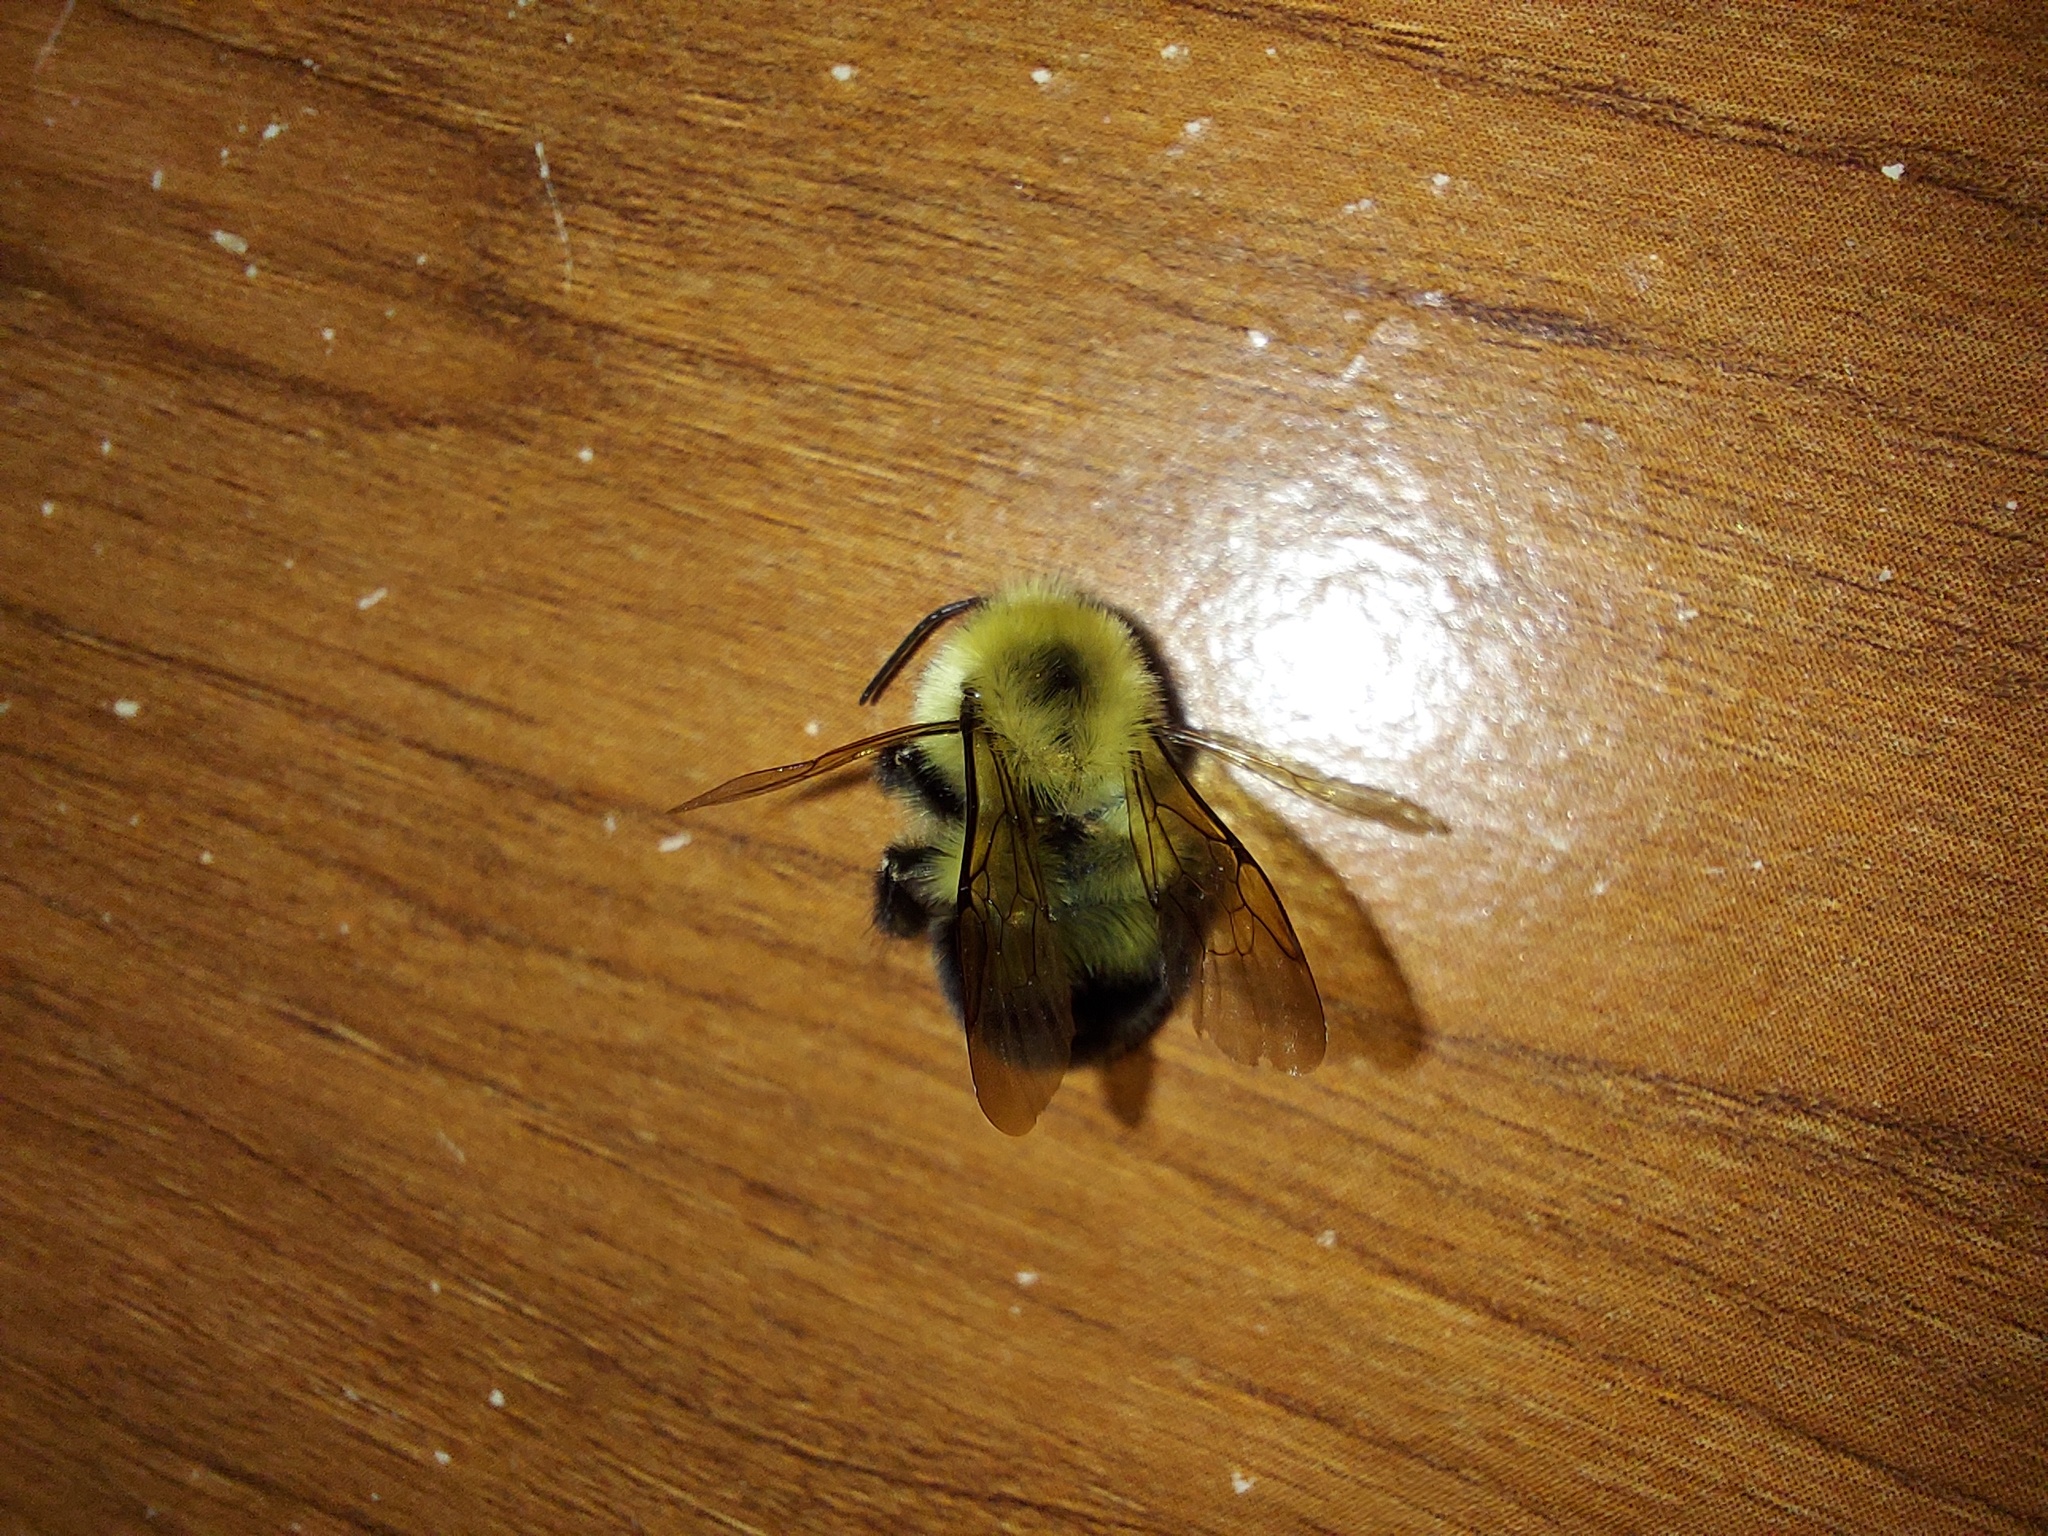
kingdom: Animalia
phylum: Arthropoda
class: Insecta
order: Hymenoptera
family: Apidae
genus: Bombus
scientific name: Bombus bimaculatus
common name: Two-spotted bumble bee
